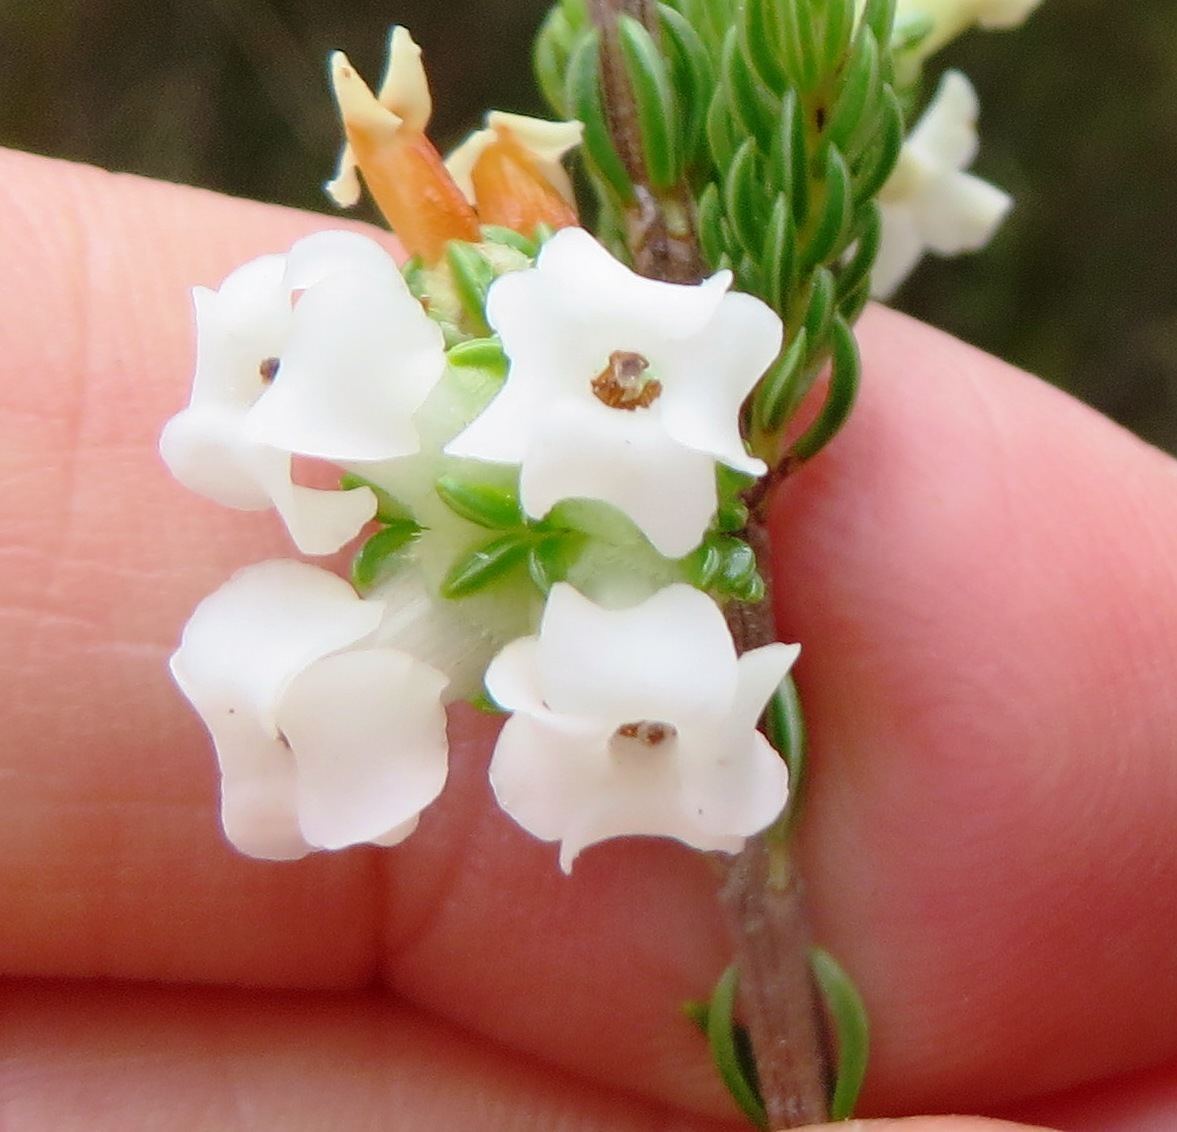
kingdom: Plantae
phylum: Tracheophyta
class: Magnoliopsida
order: Ericales
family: Ericaceae
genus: Erica
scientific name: Erica denticulata
